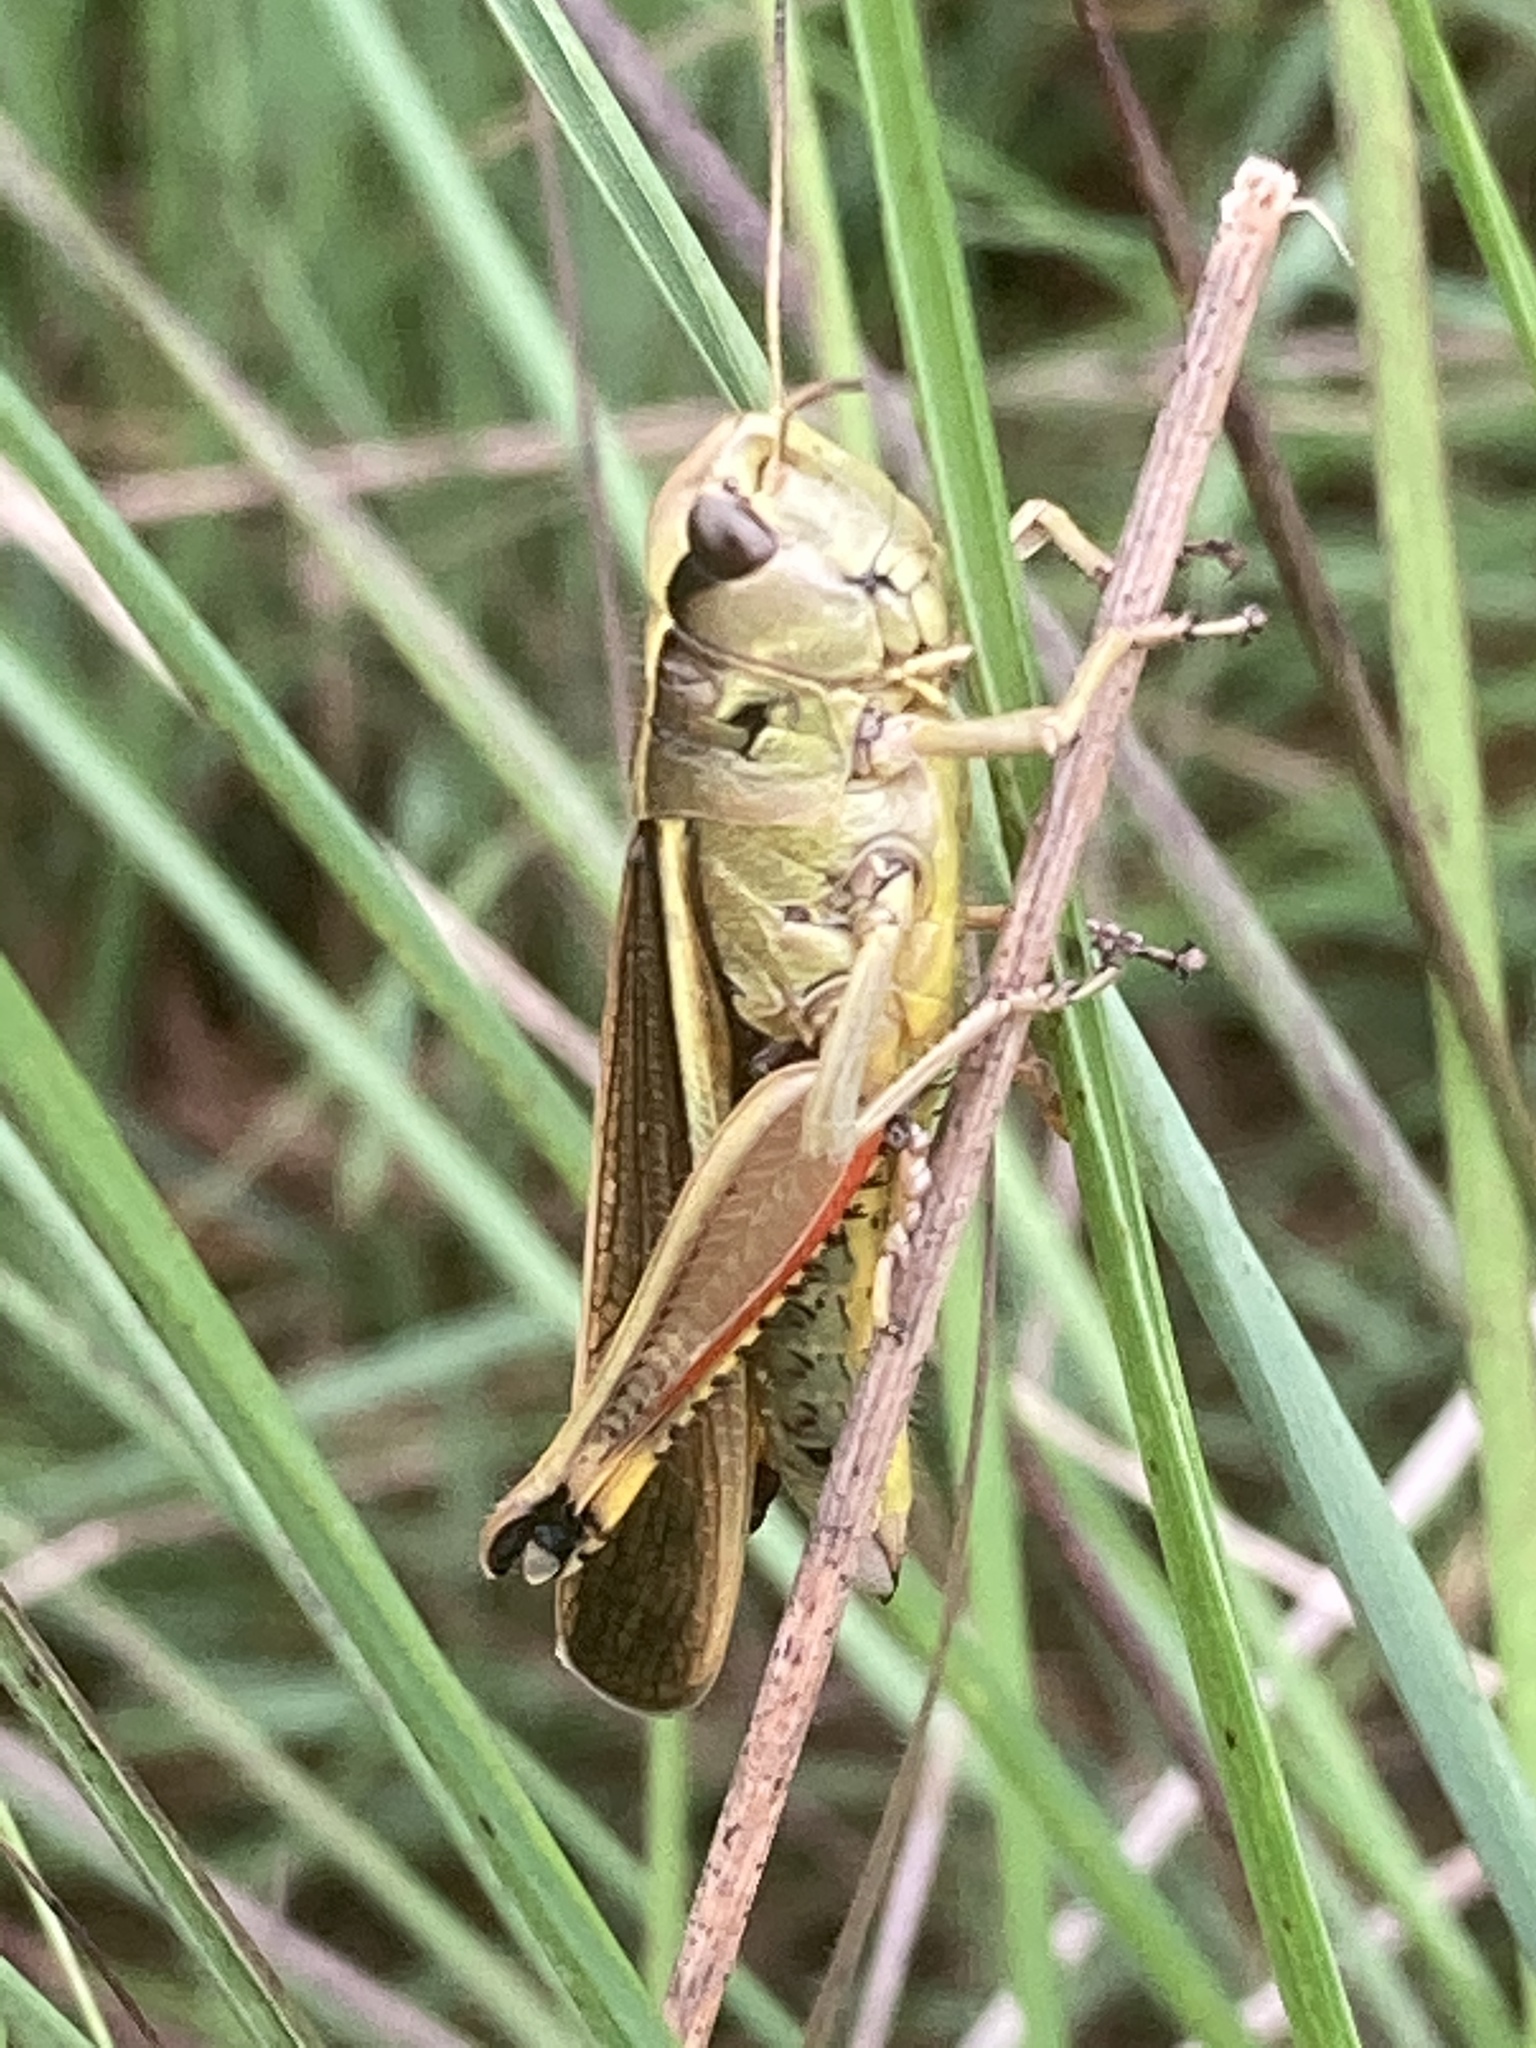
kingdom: Animalia
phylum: Arthropoda
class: Insecta
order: Orthoptera
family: Acrididae
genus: Stethophyma
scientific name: Stethophyma grossum
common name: Large marsh grasshopper
